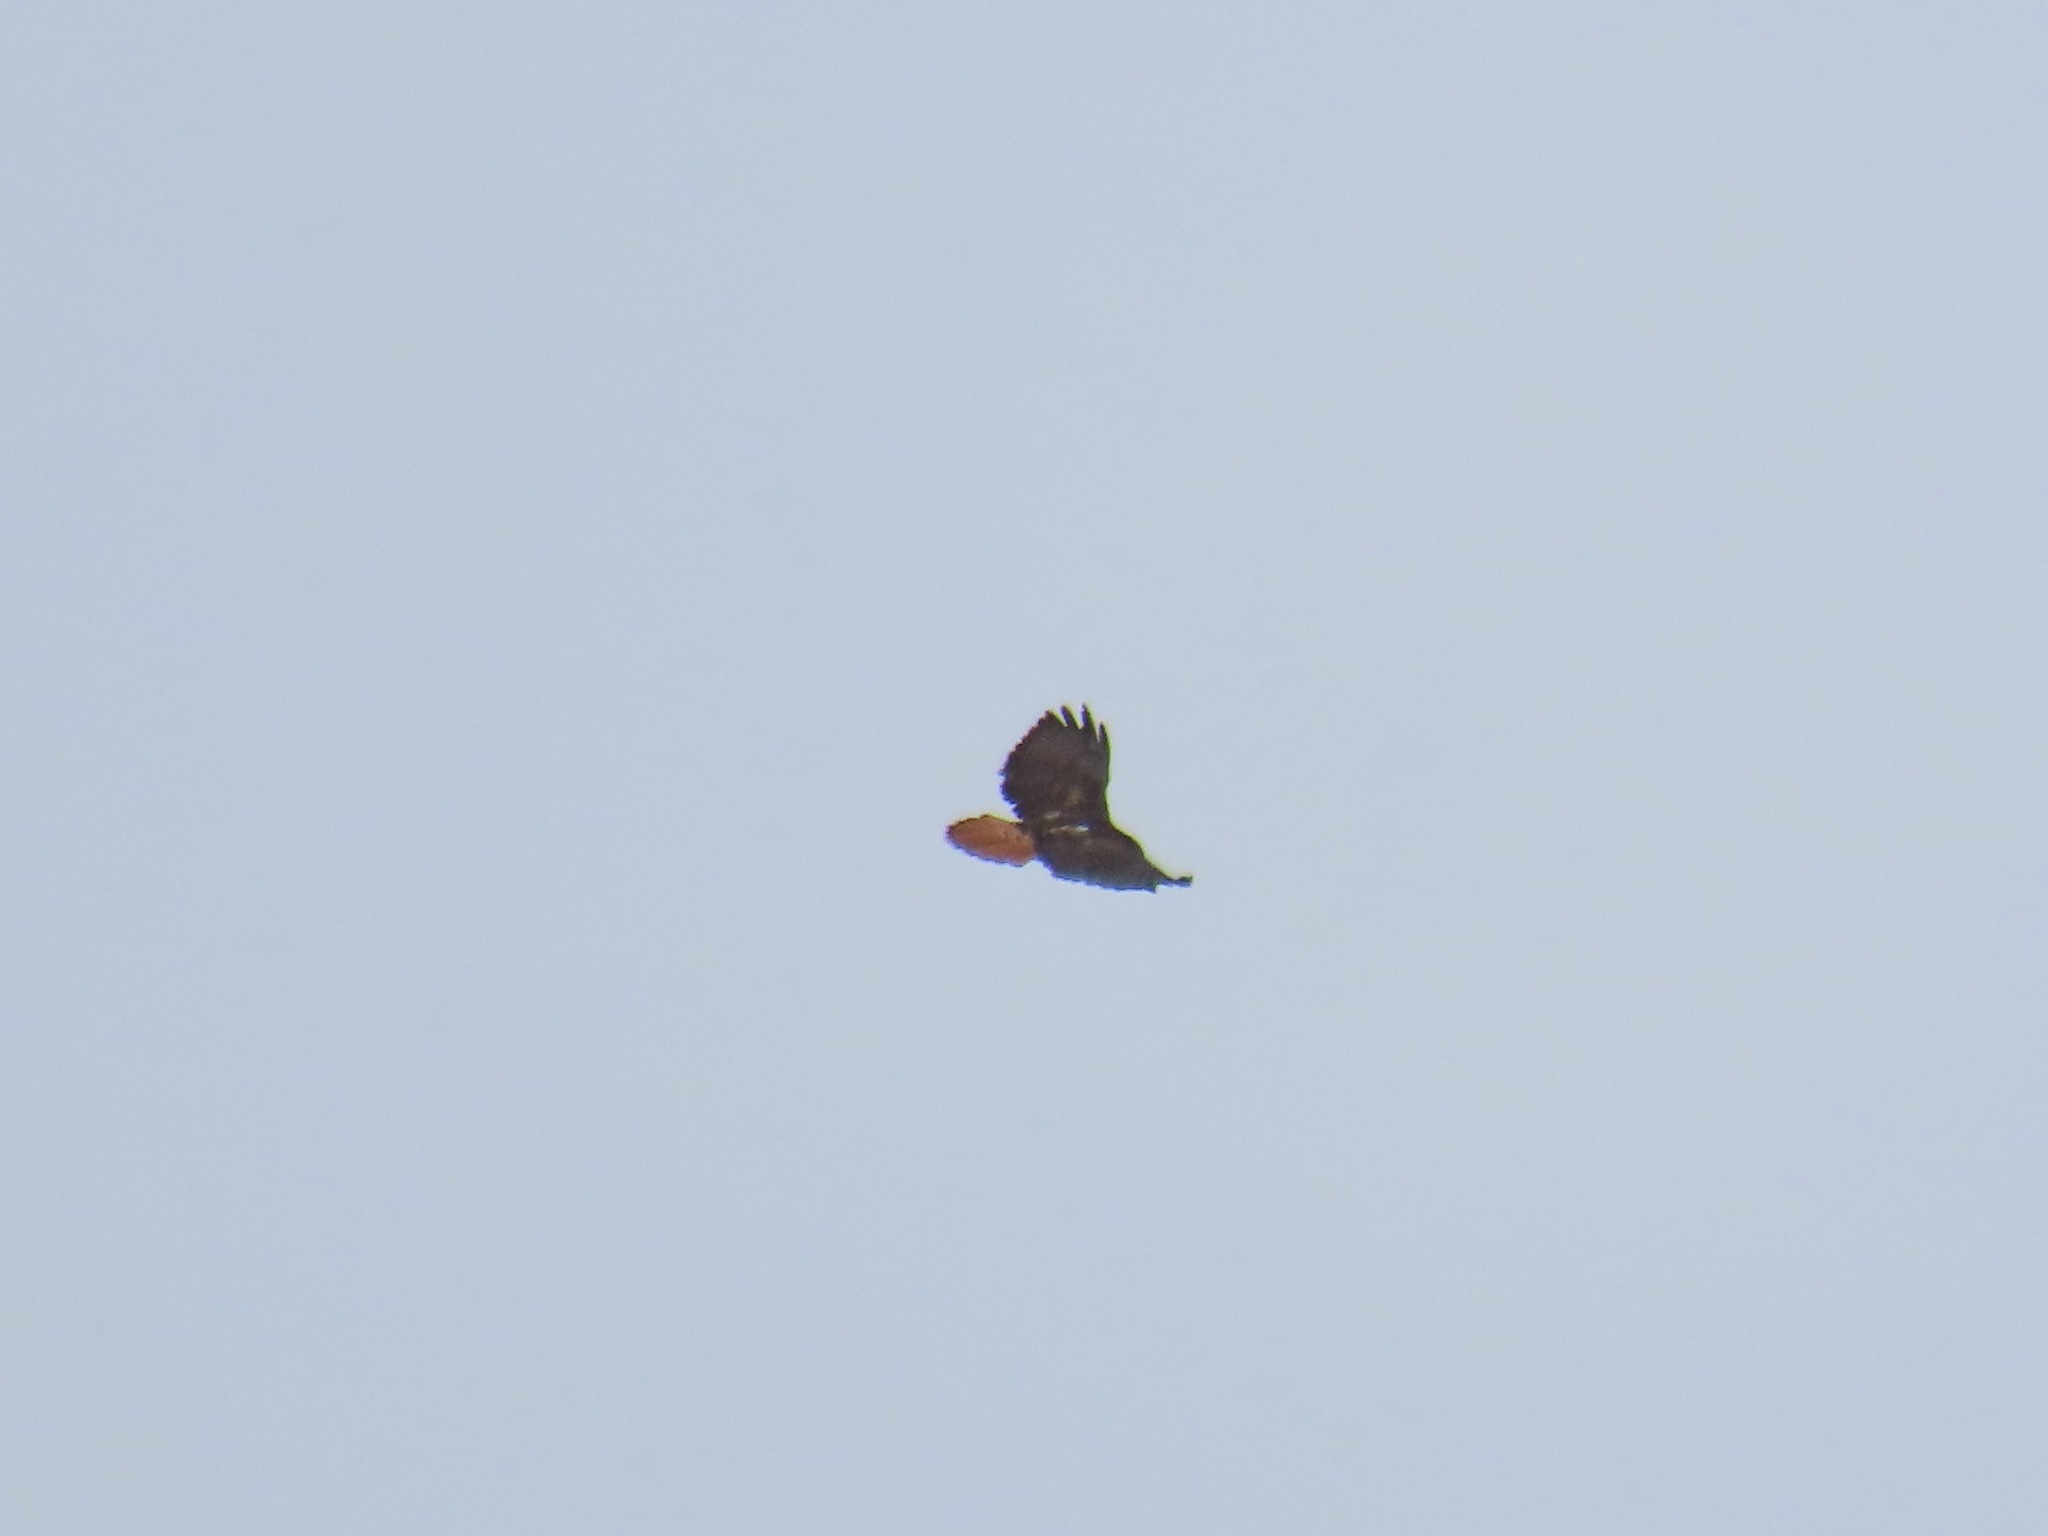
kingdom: Animalia
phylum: Chordata
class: Aves
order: Accipitriformes
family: Accipitridae
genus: Buteo
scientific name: Buteo jamaicensis
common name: Red-tailed hawk
